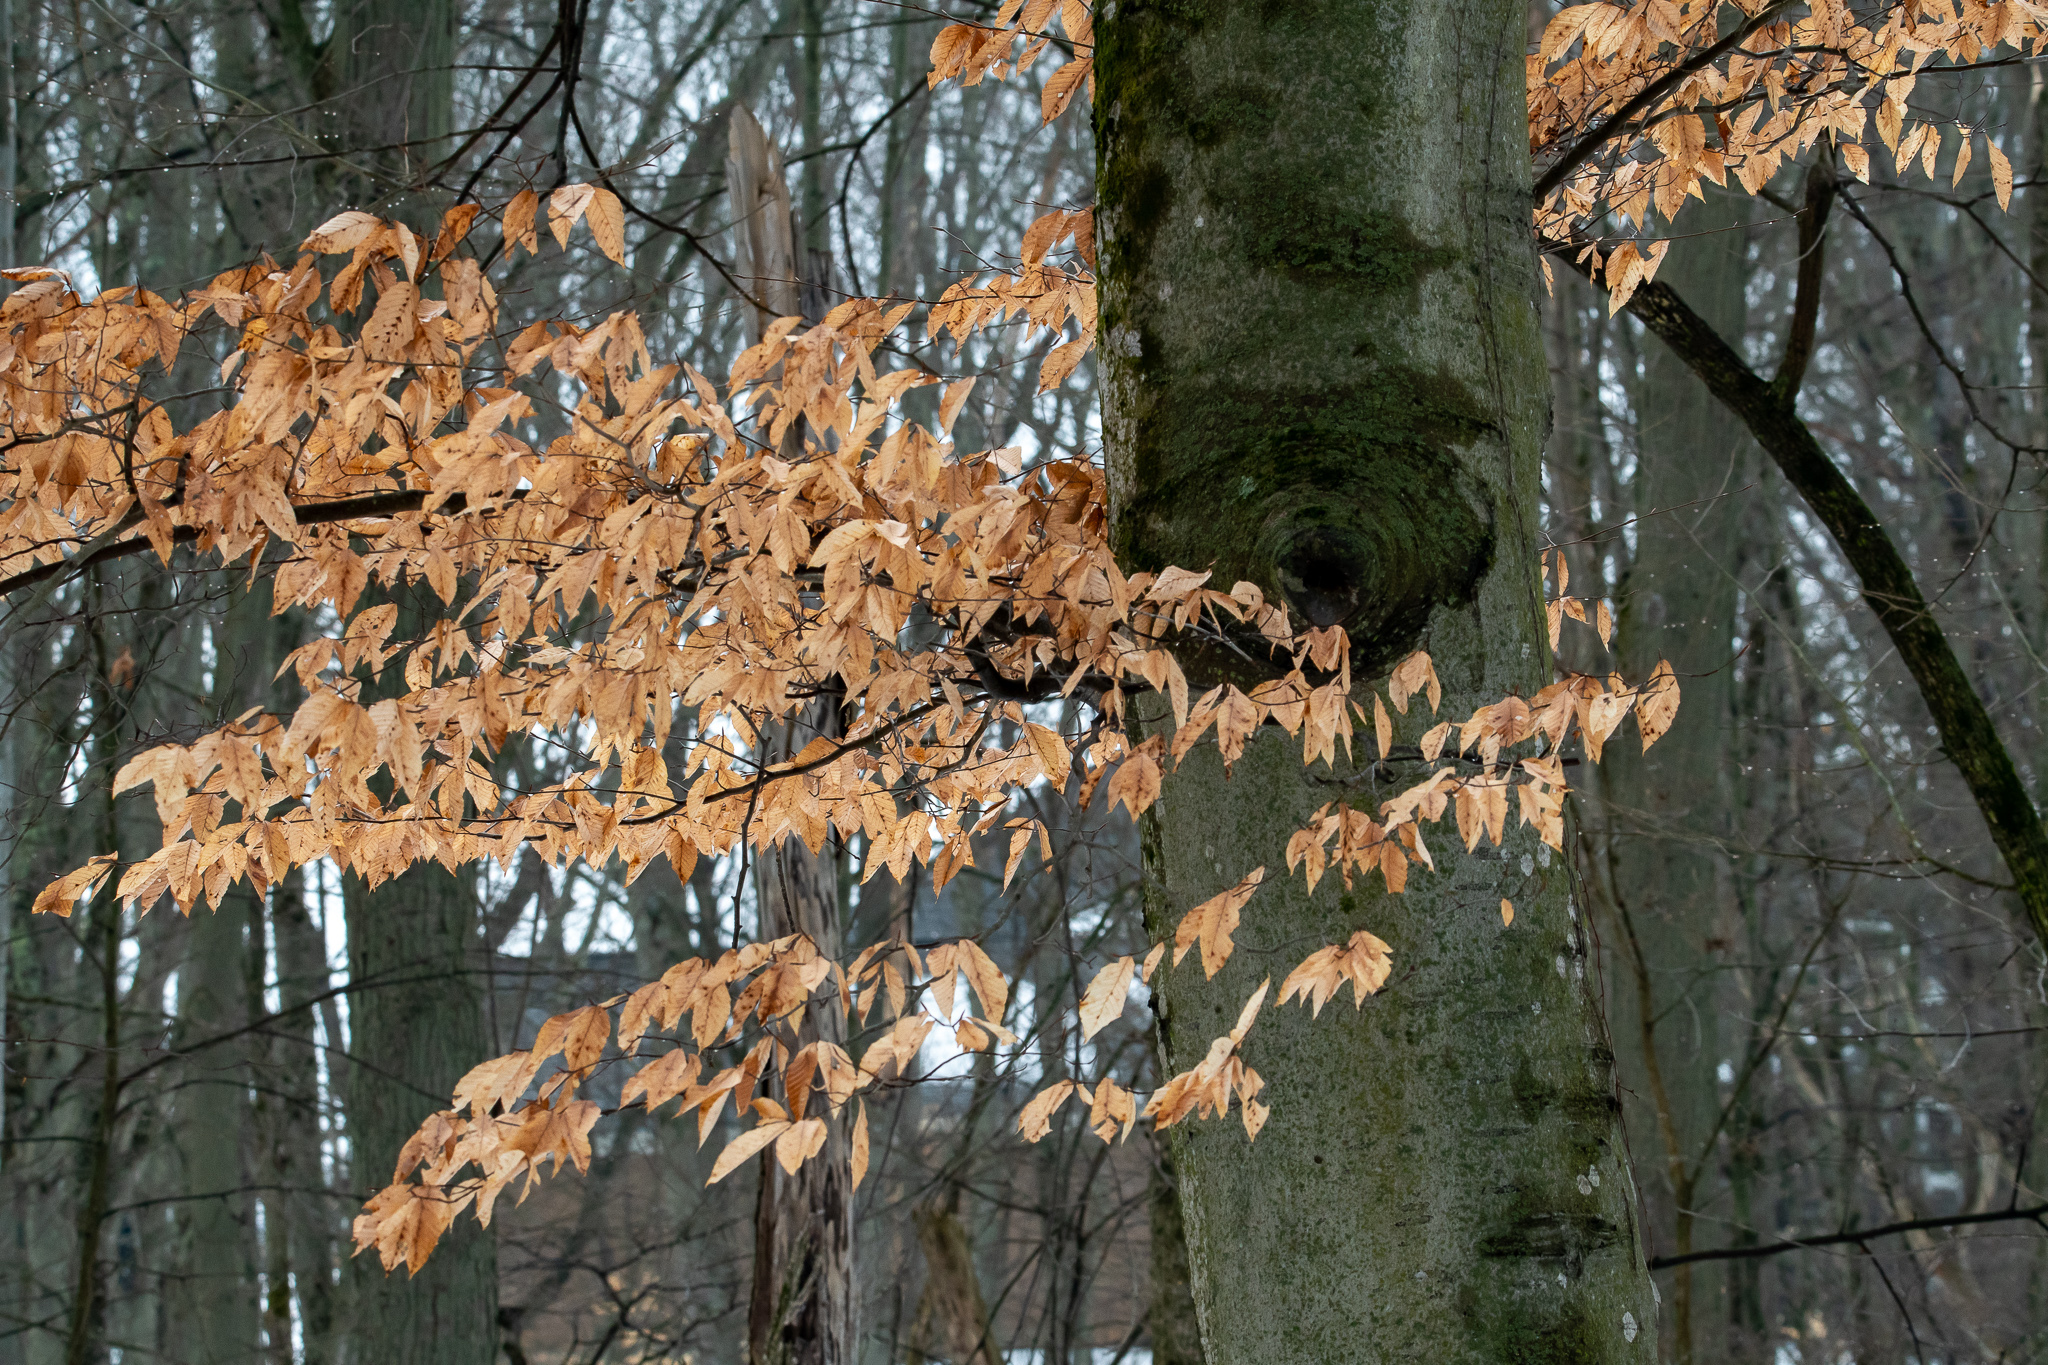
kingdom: Plantae
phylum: Tracheophyta
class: Magnoliopsida
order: Fagales
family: Fagaceae
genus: Fagus
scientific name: Fagus grandifolia
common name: American beech
